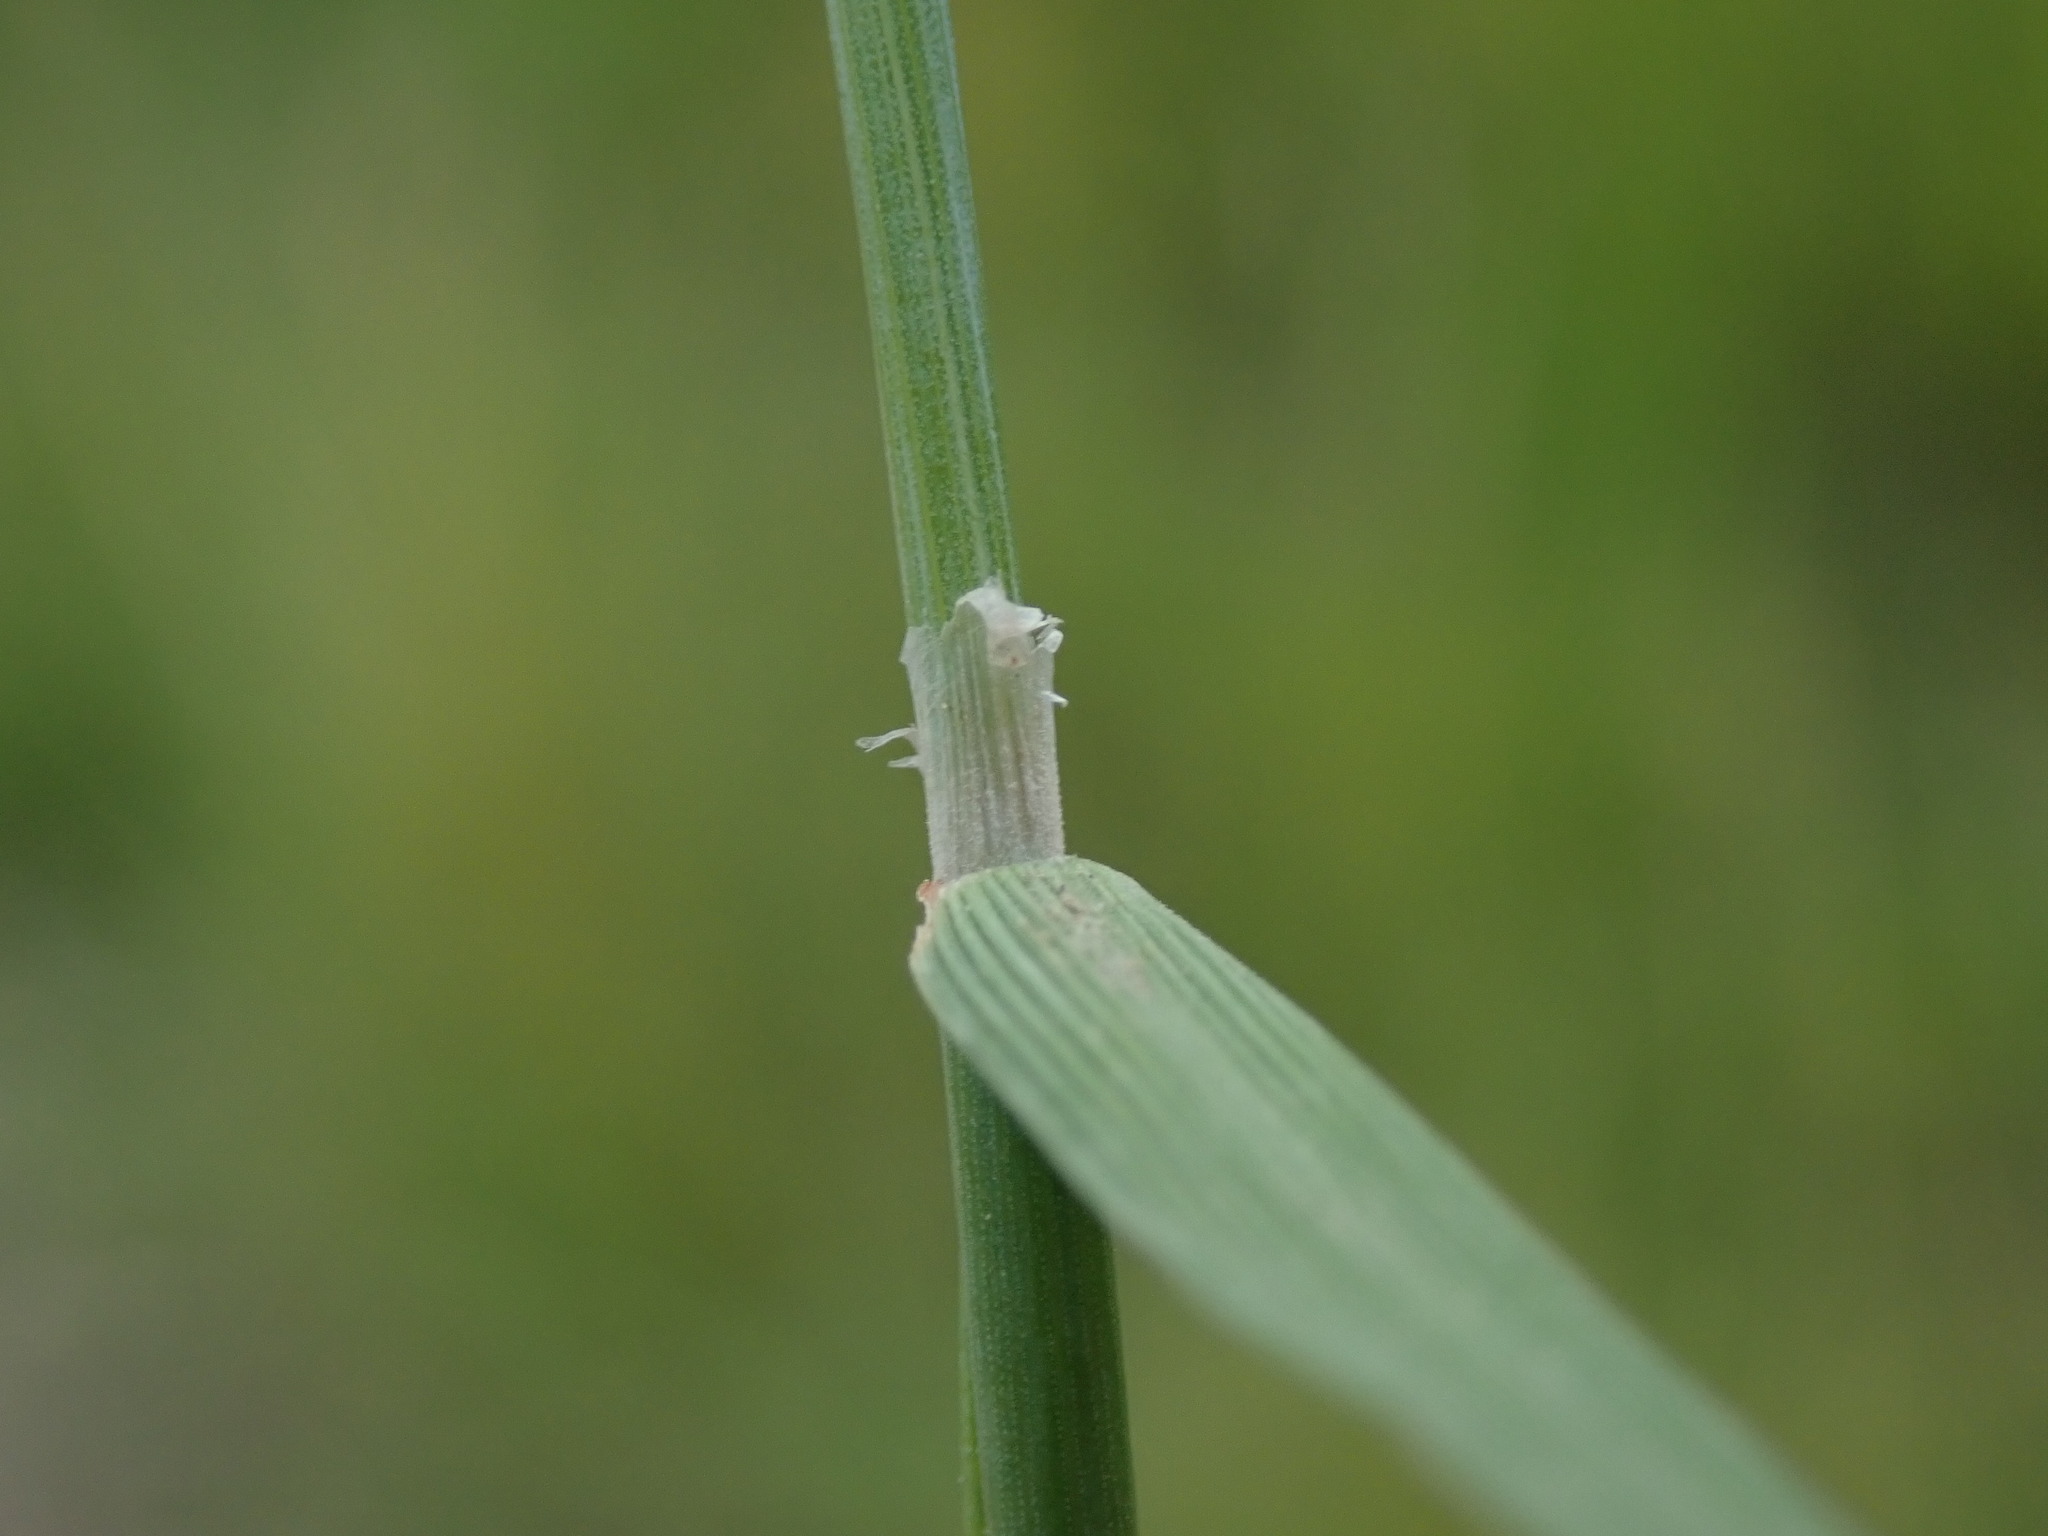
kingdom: Plantae
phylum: Tracheophyta
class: Liliopsida
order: Poales
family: Poaceae
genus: Alopecurus
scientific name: Alopecurus geniculatus
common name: Water foxtail
